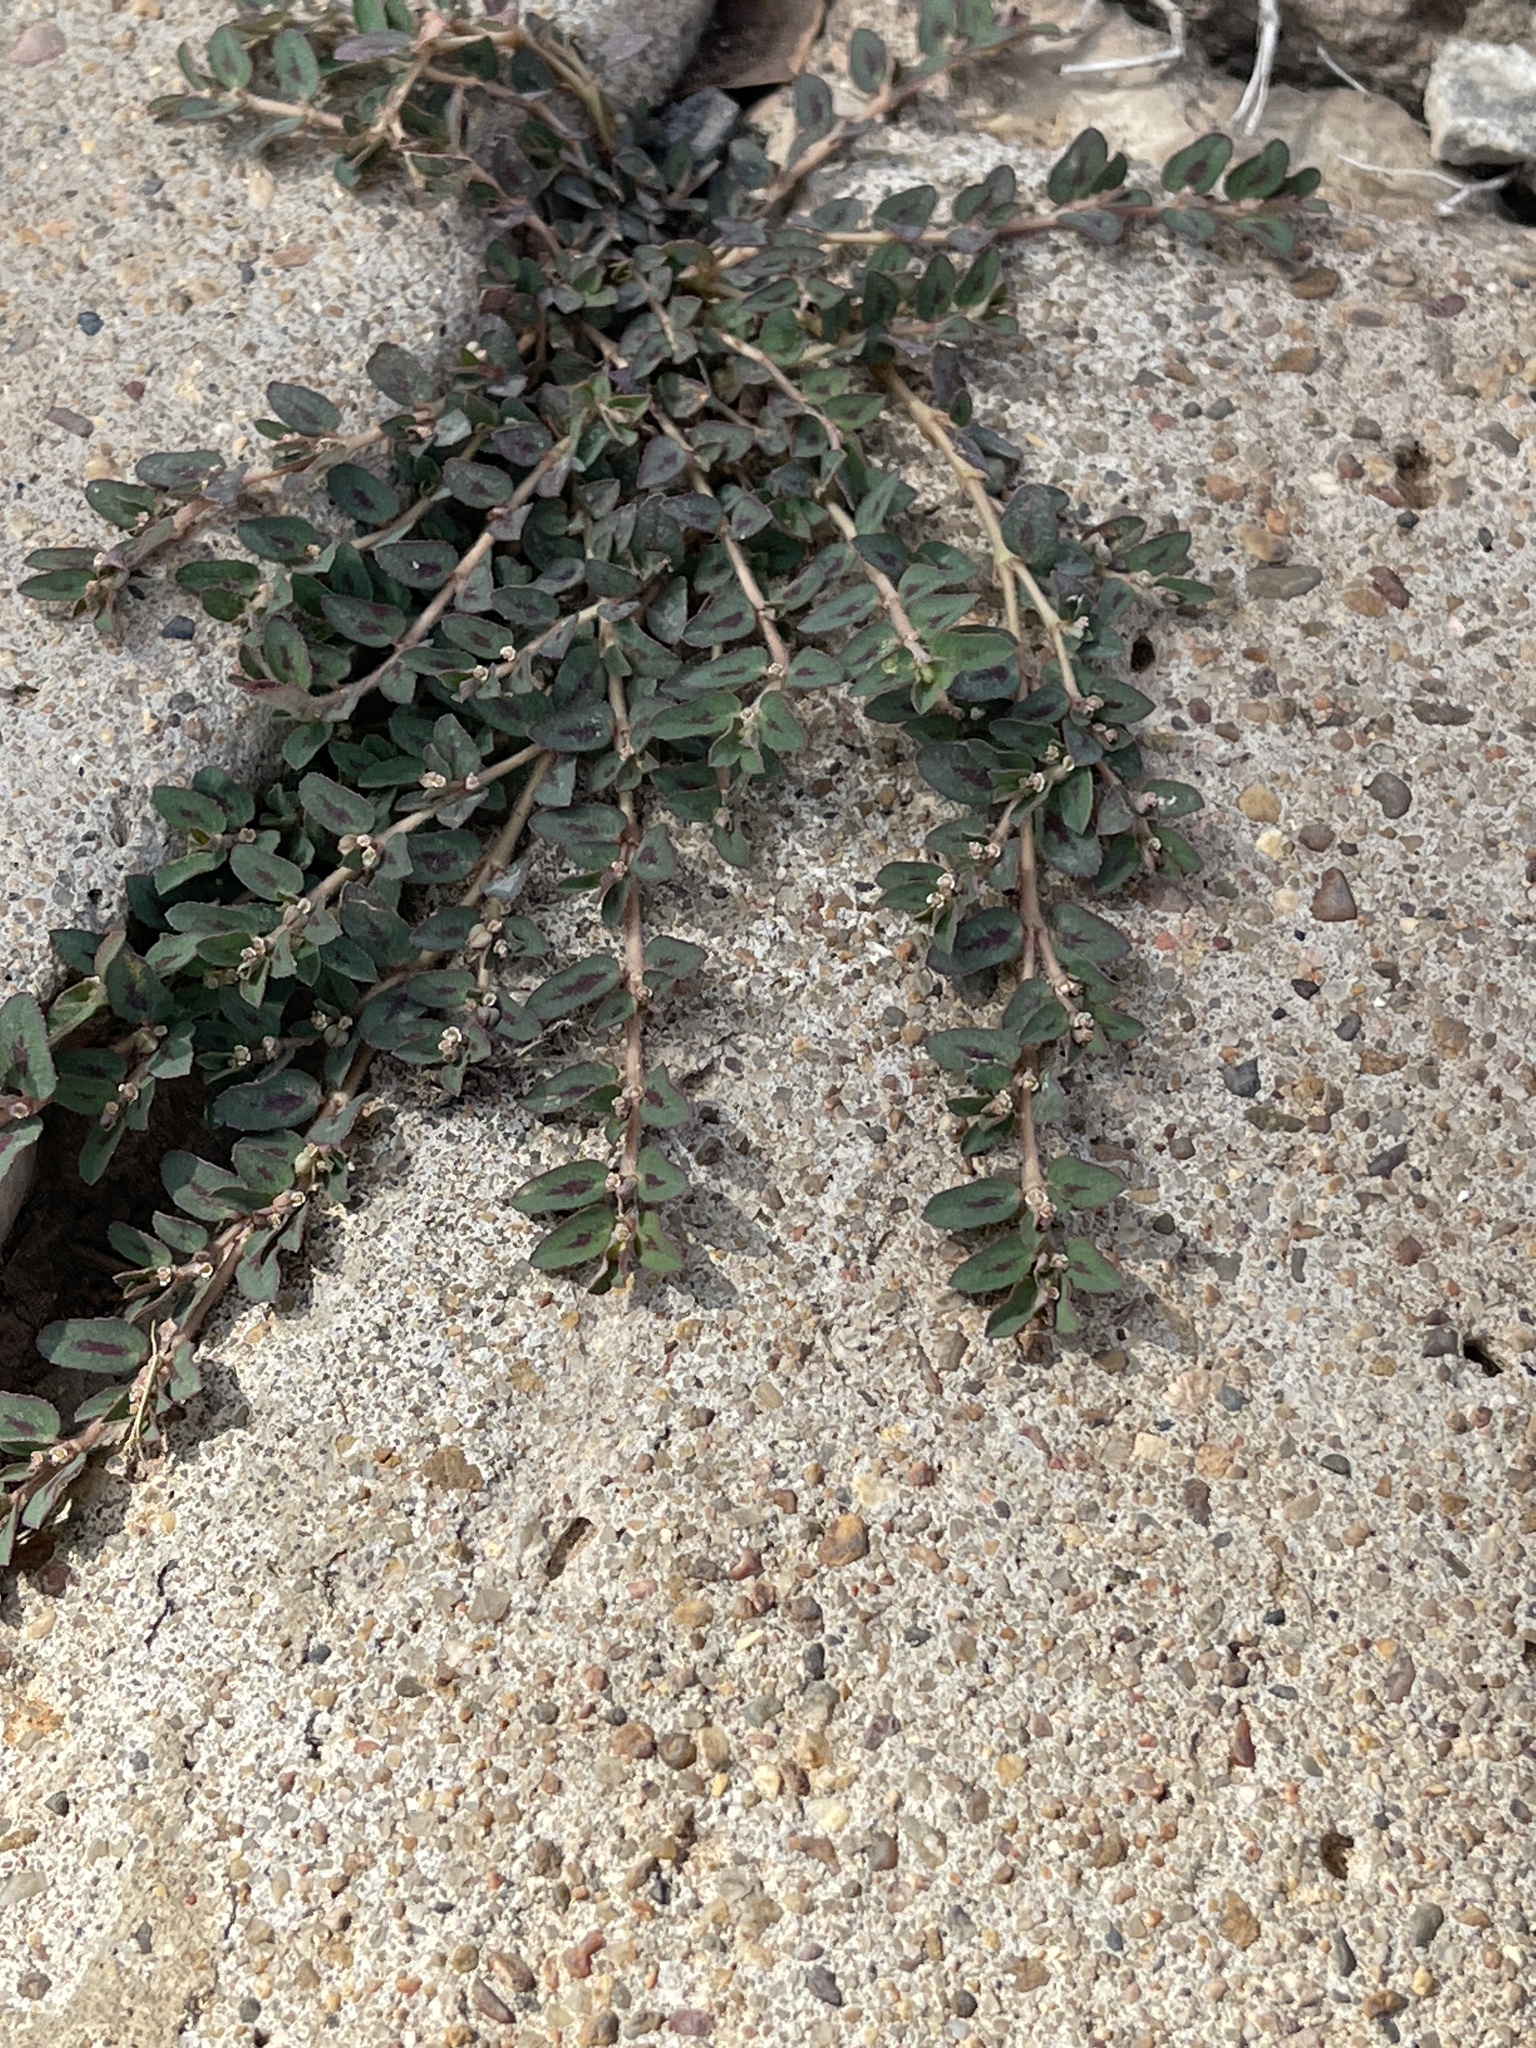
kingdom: Plantae
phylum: Tracheophyta
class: Magnoliopsida
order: Malpighiales
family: Euphorbiaceae
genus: Euphorbia
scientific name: Euphorbia maculata
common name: Spotted spurge
